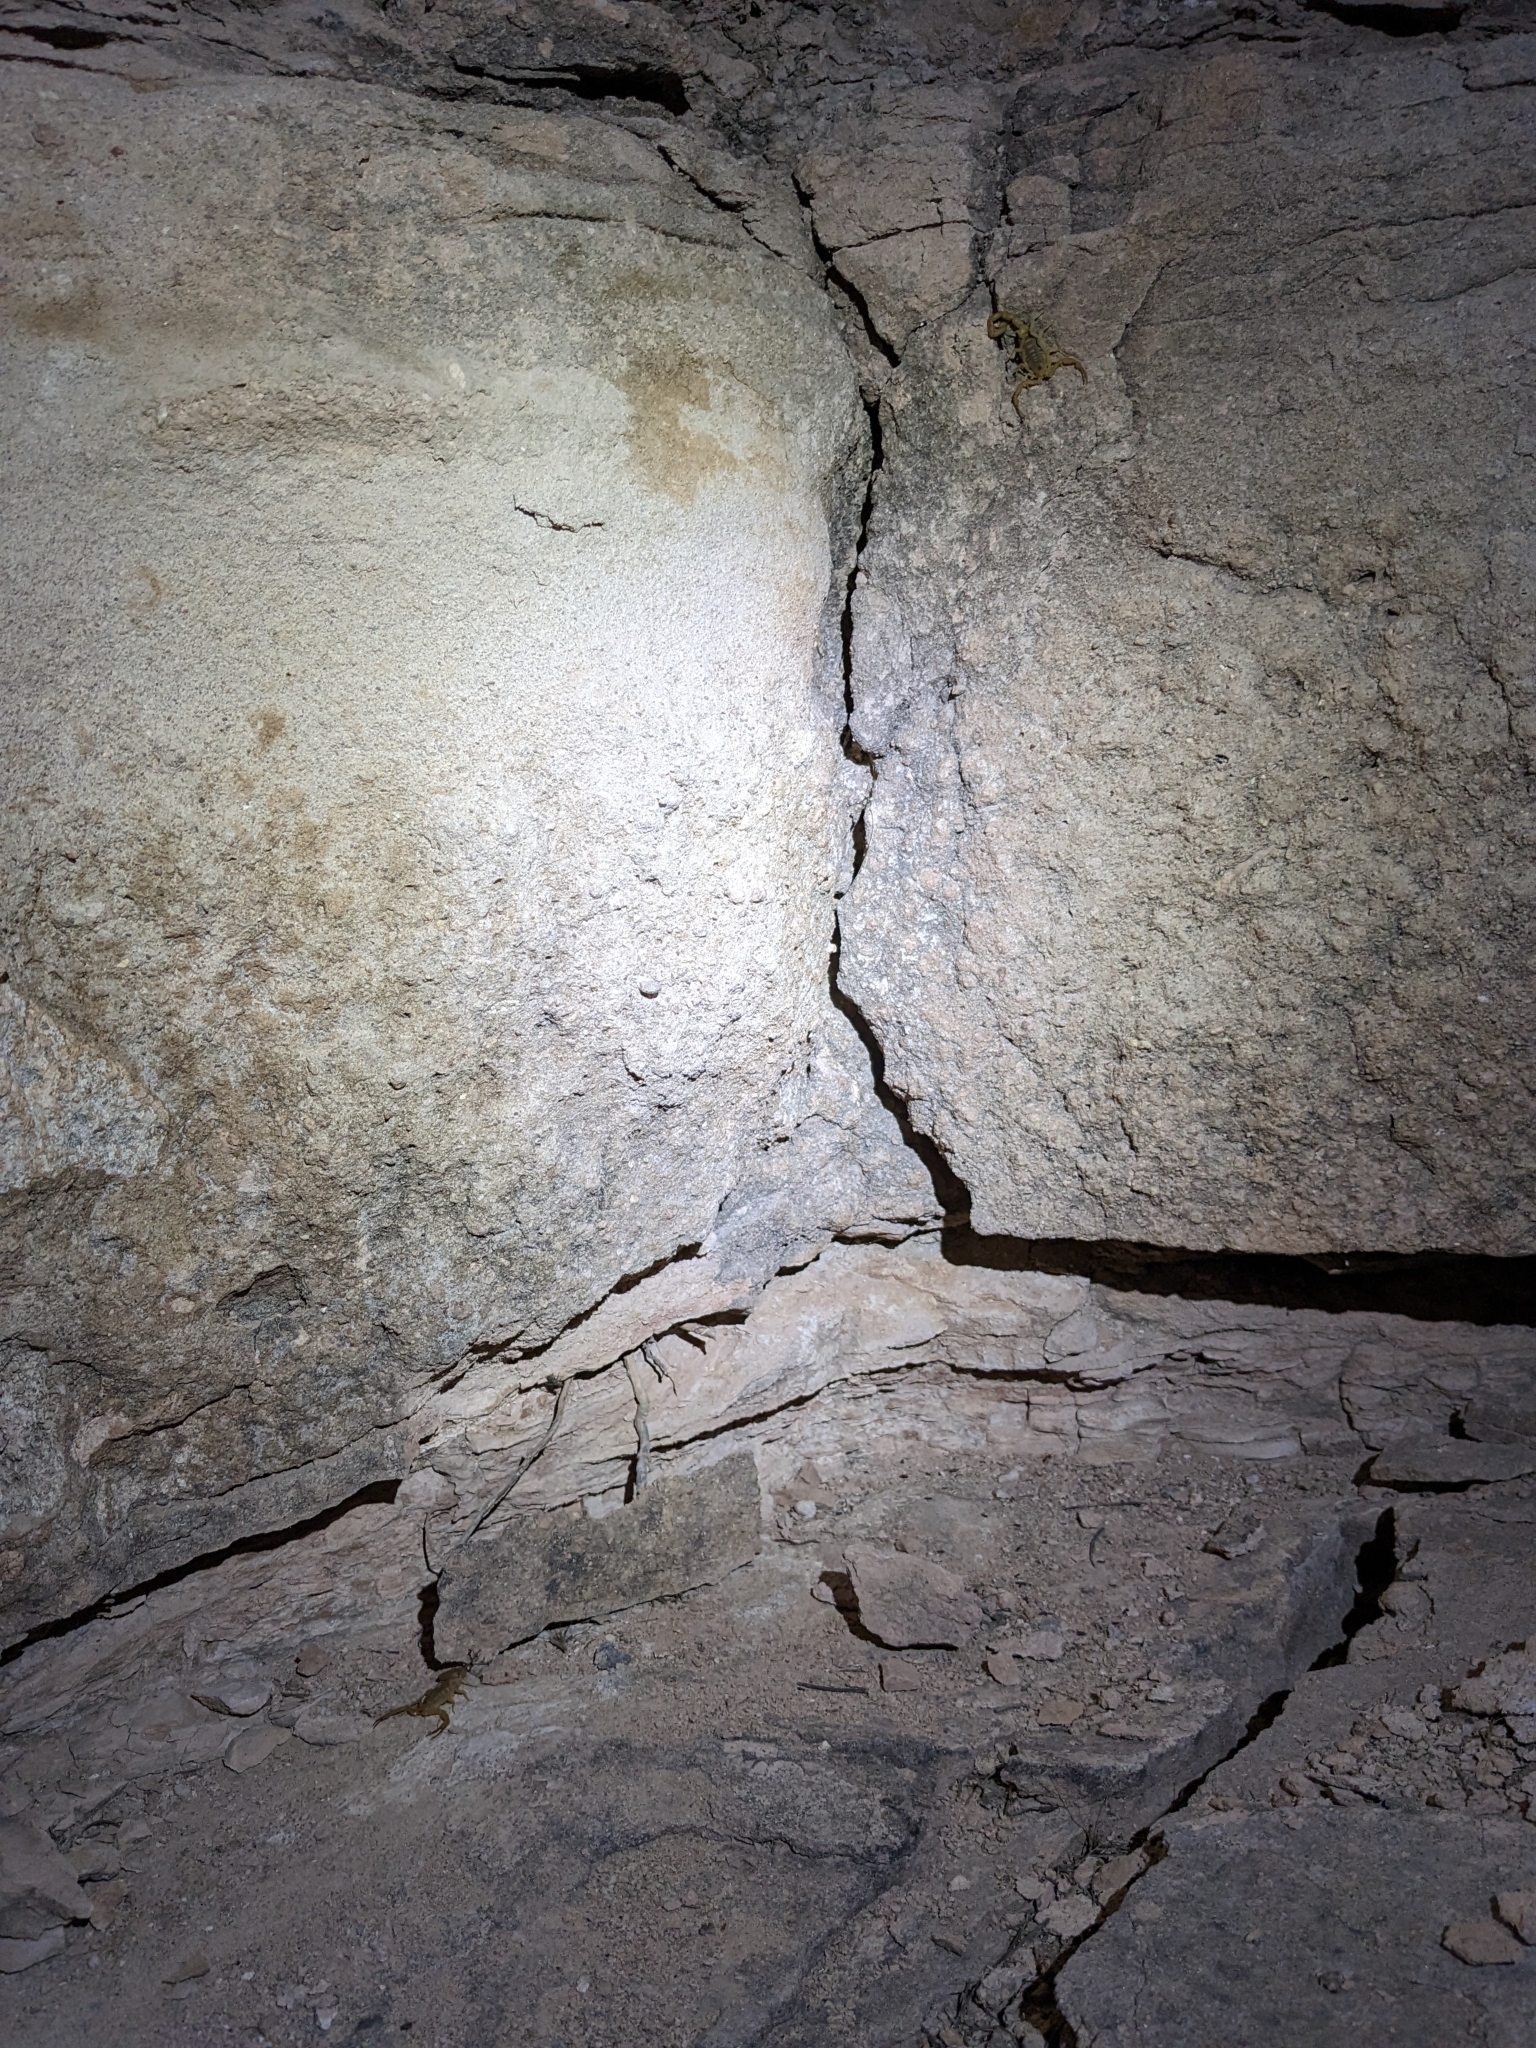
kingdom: Animalia
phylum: Arthropoda
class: Arachnida
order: Scorpiones
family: Buthidae
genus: Centruroides
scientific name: Centruroides sculpturatus
